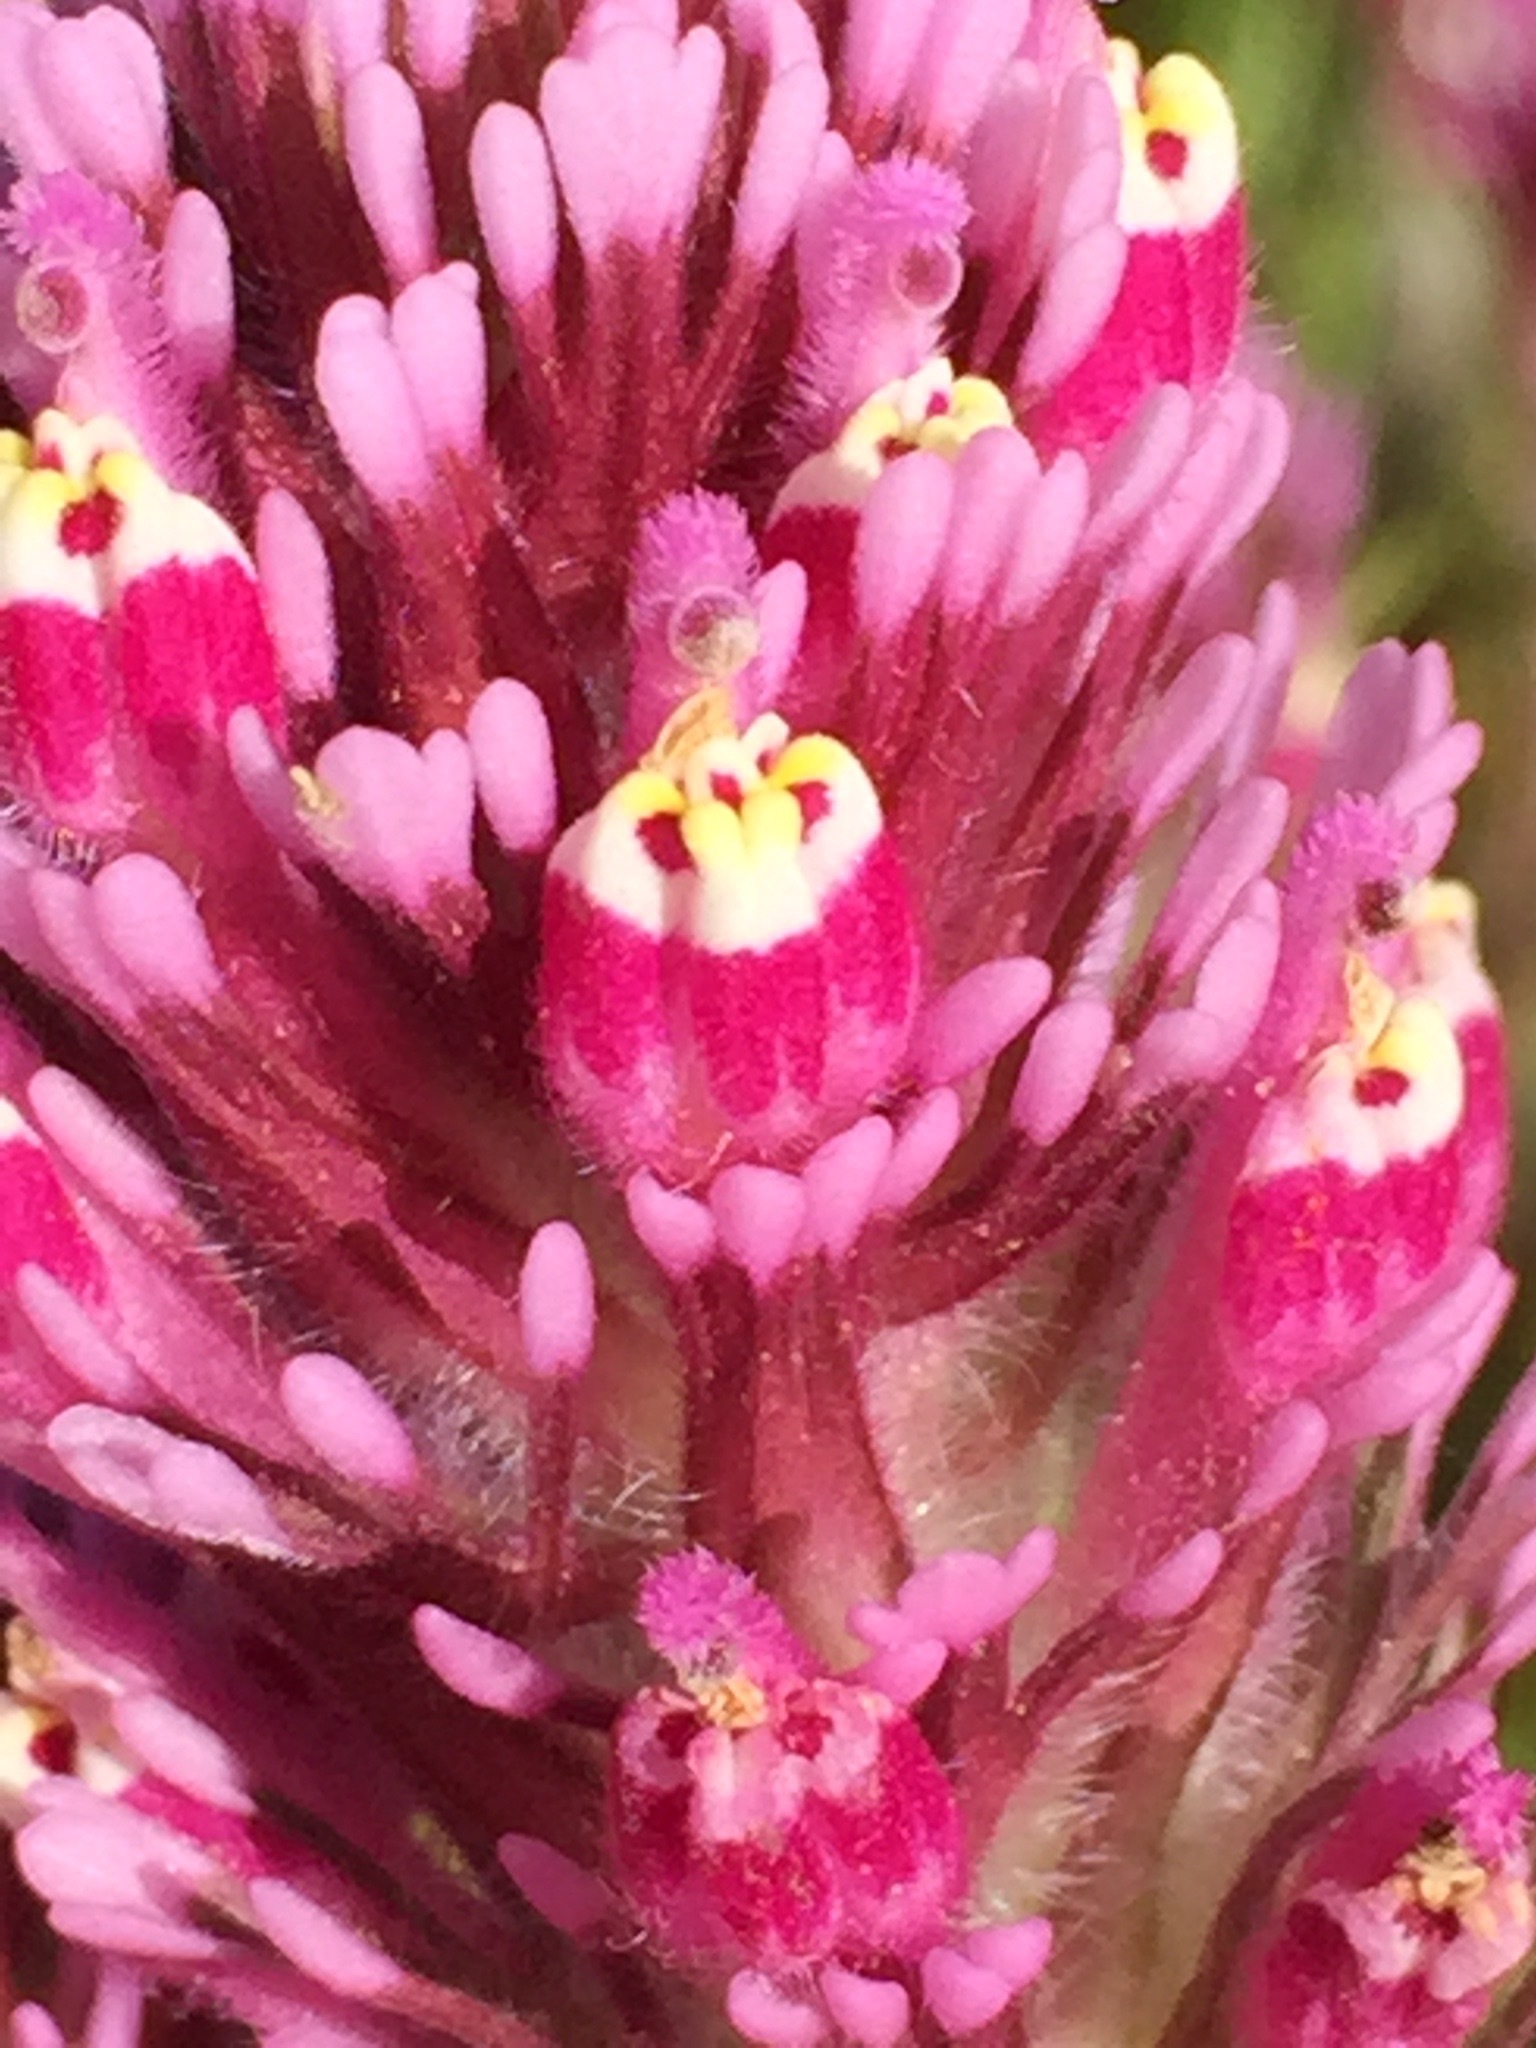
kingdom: Plantae
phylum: Tracheophyta
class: Magnoliopsida
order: Lamiales
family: Orobanchaceae
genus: Castilleja
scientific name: Castilleja exserta
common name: Purple owl-clover
